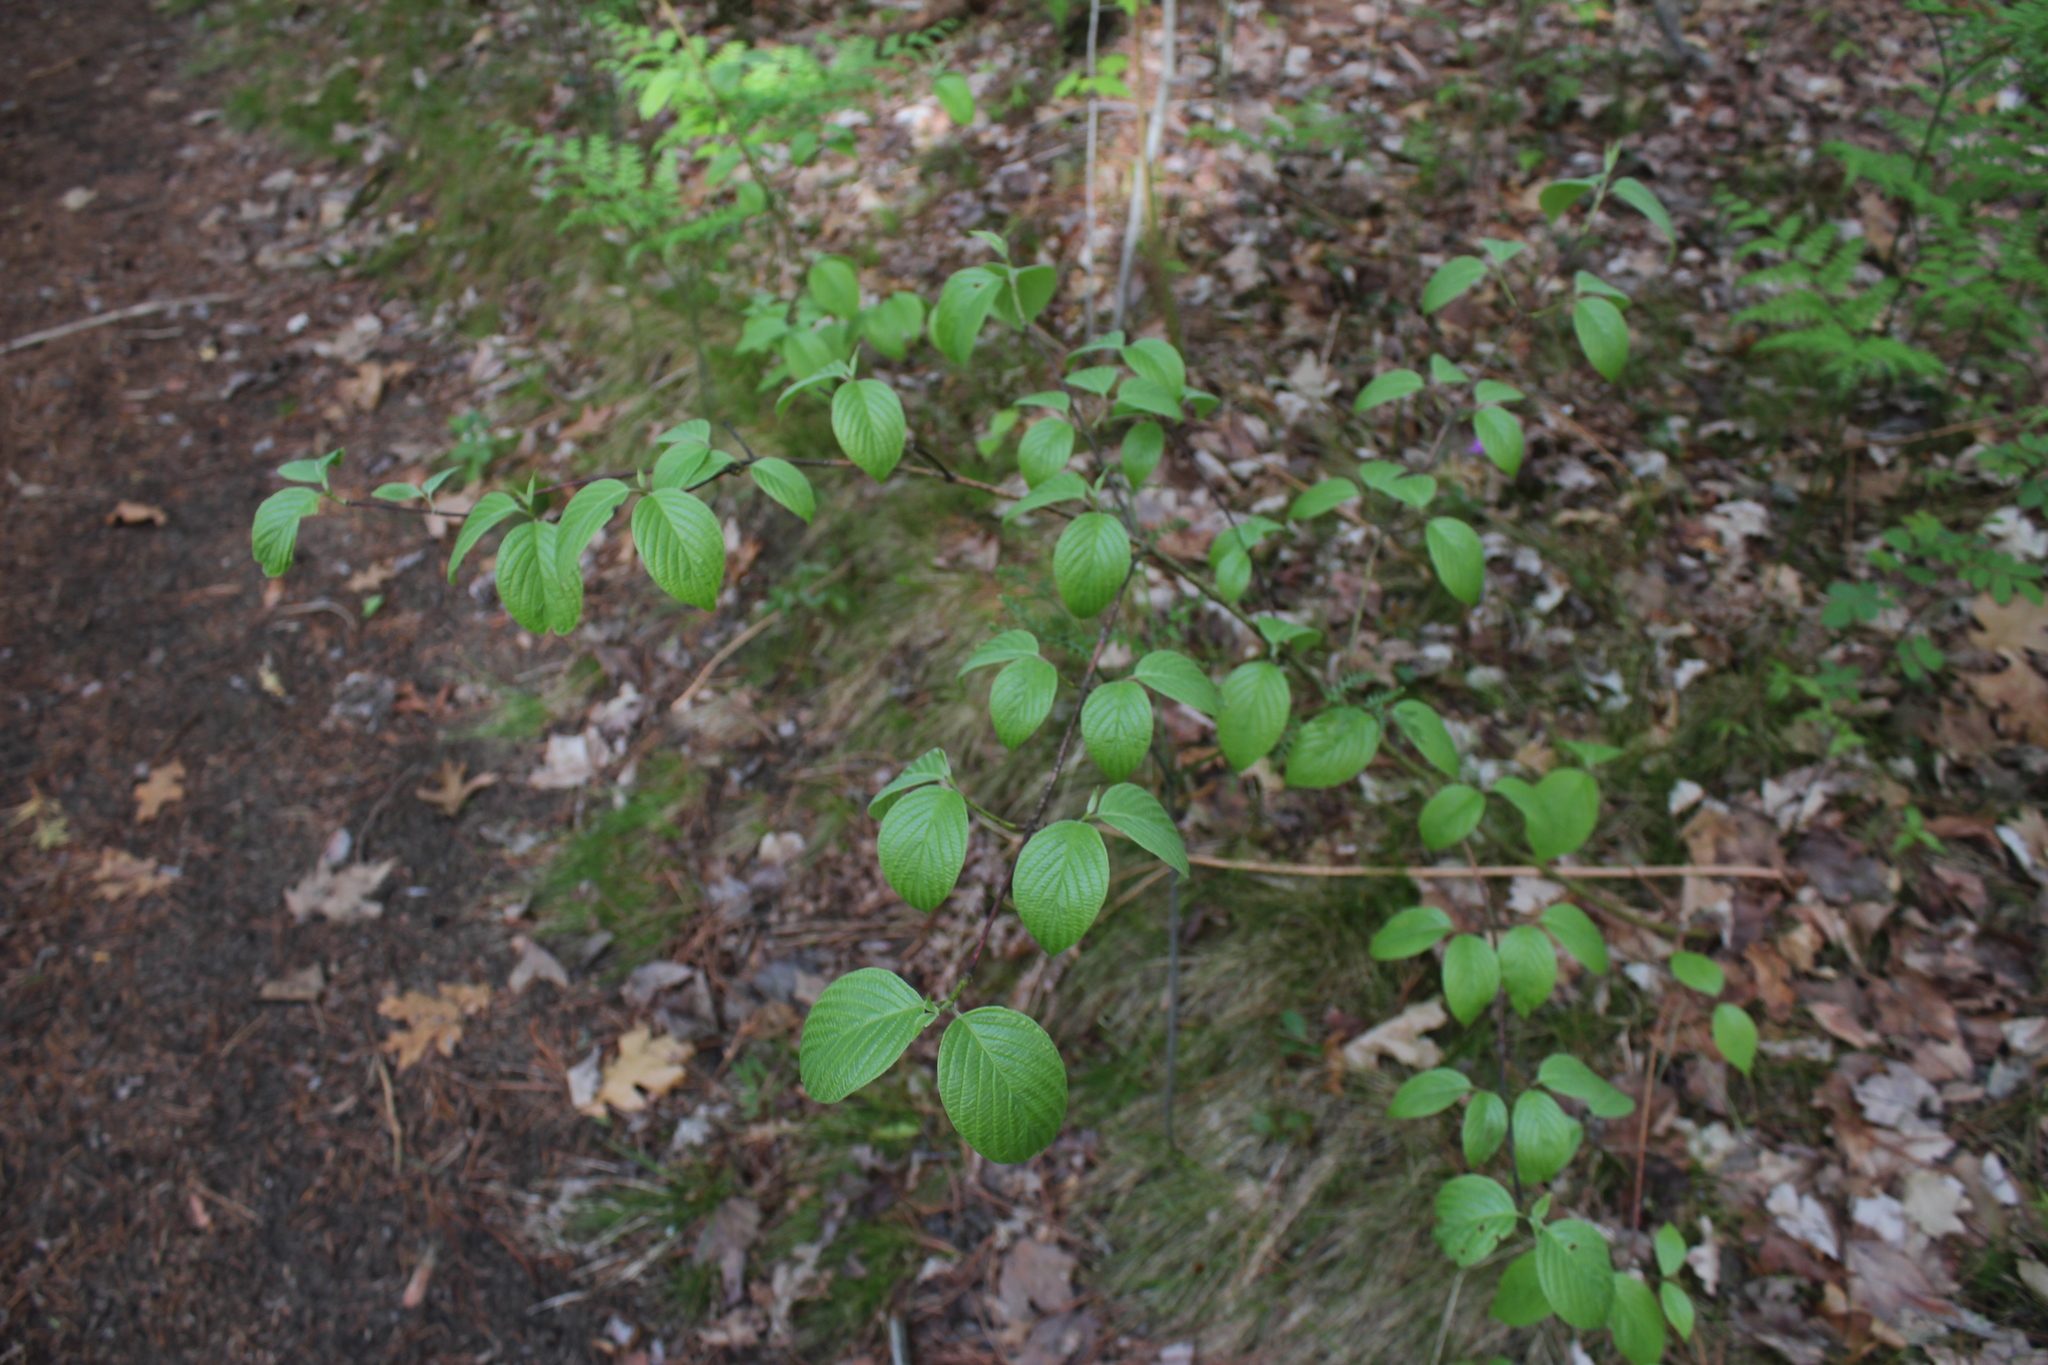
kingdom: Plantae
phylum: Tracheophyta
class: Magnoliopsida
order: Cornales
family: Cornaceae
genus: Cornus
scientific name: Cornus rugosa
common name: Round-leaf dogwood
